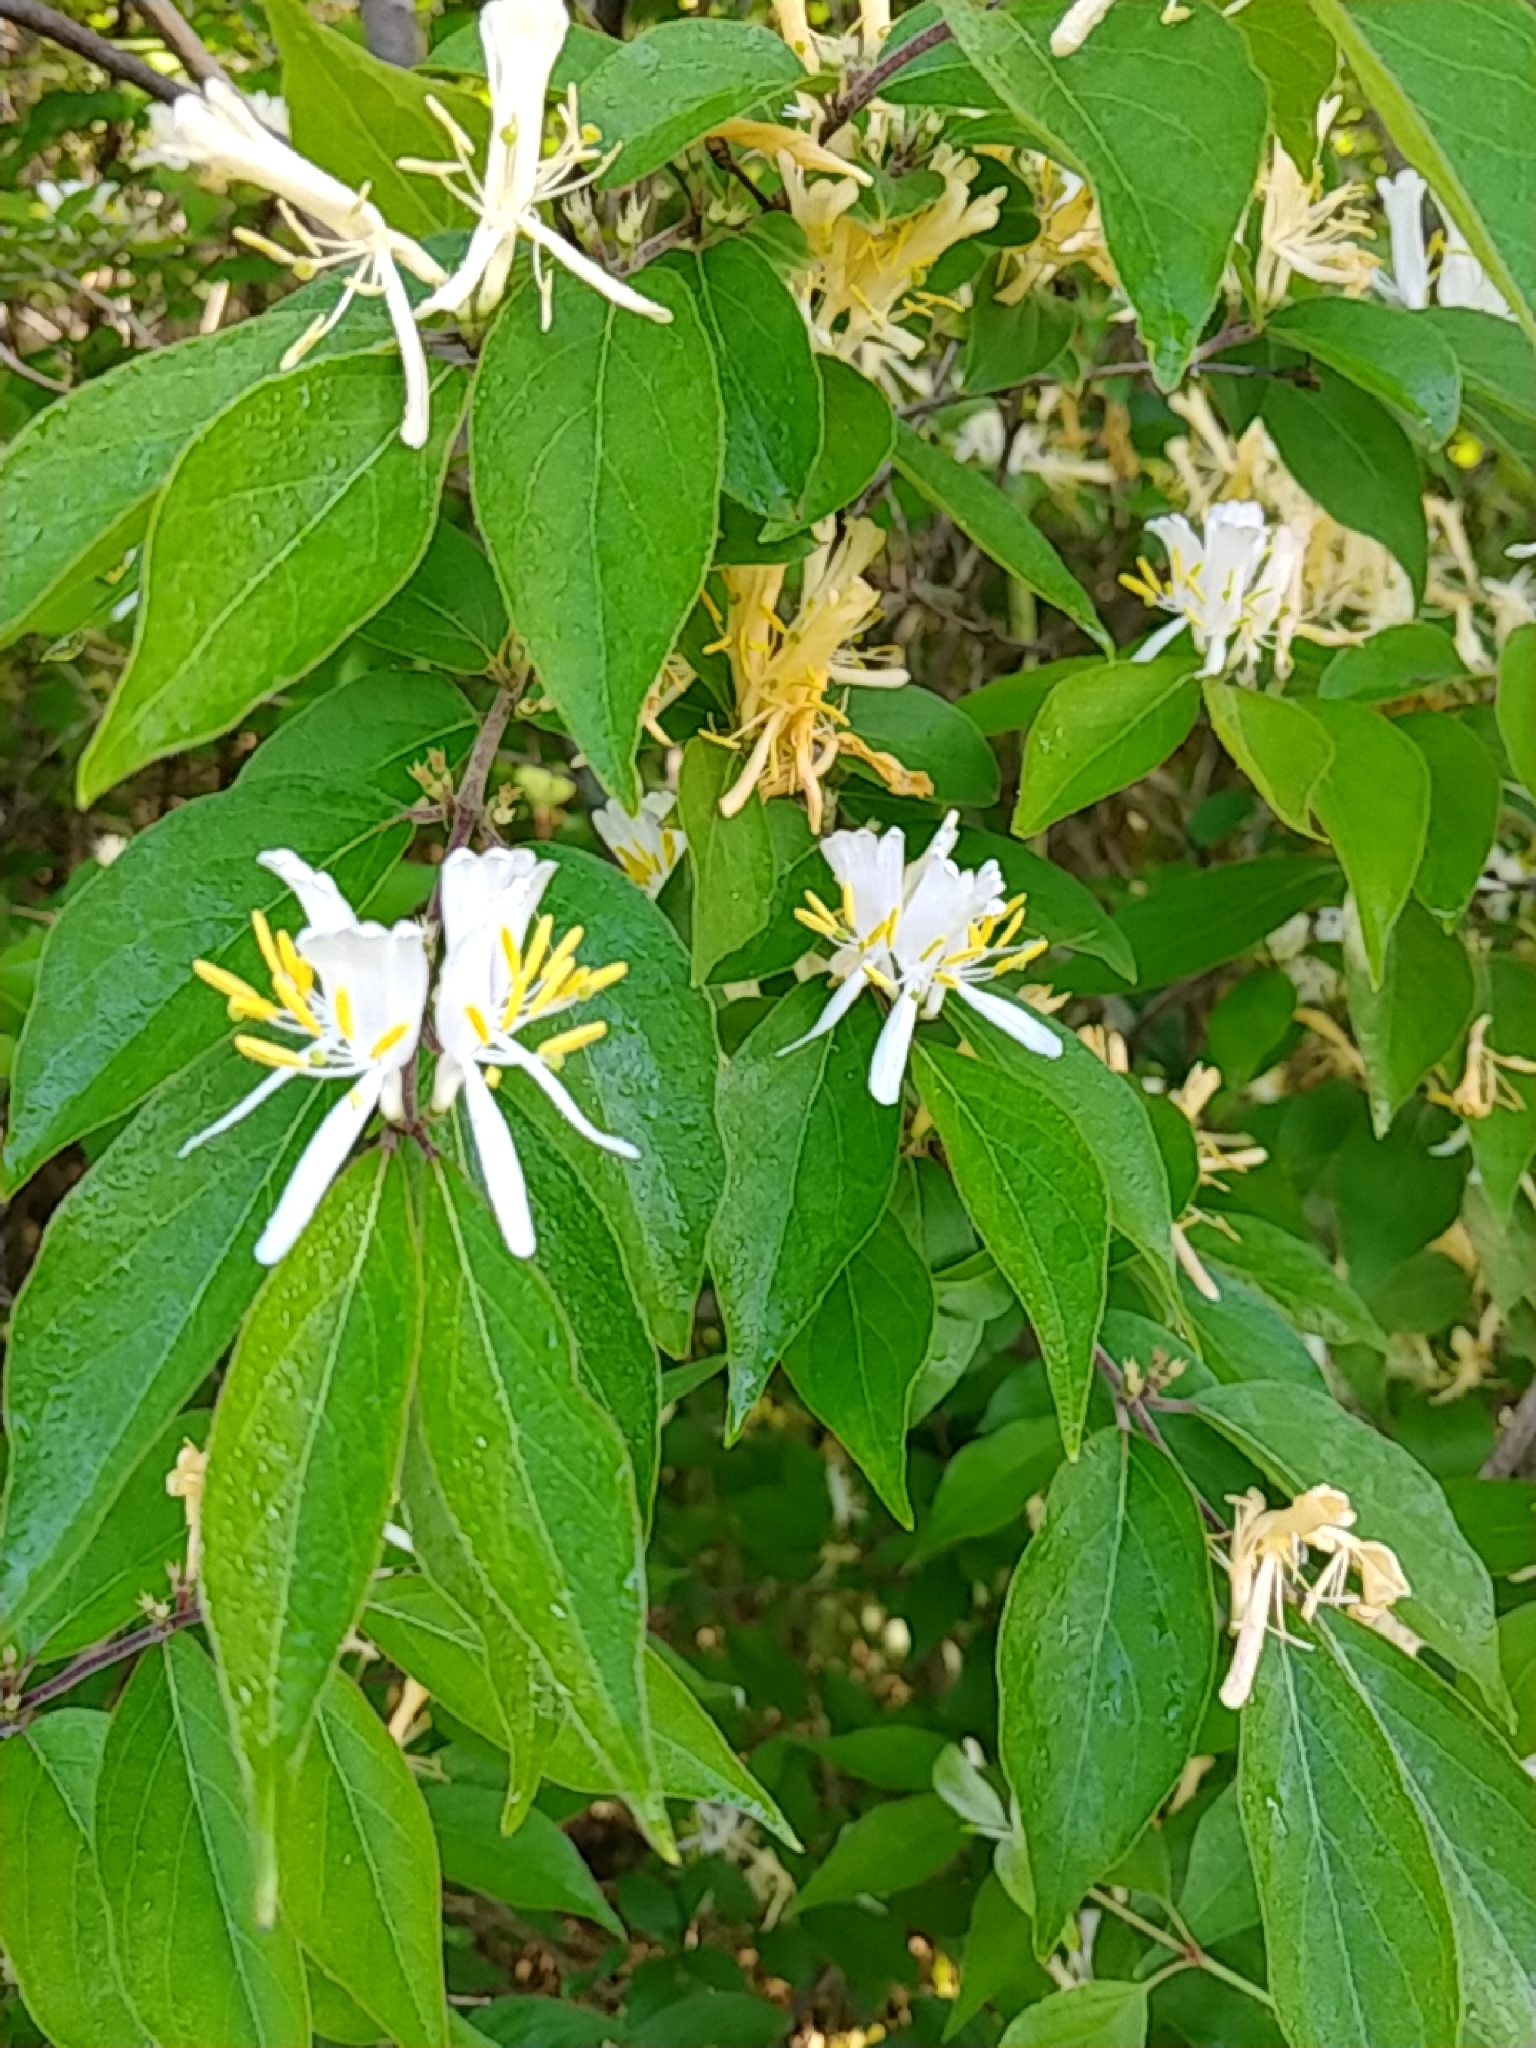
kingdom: Plantae
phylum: Tracheophyta
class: Magnoliopsida
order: Dipsacales
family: Caprifoliaceae
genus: Lonicera
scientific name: Lonicera maackii
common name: Amur honeysuckle
